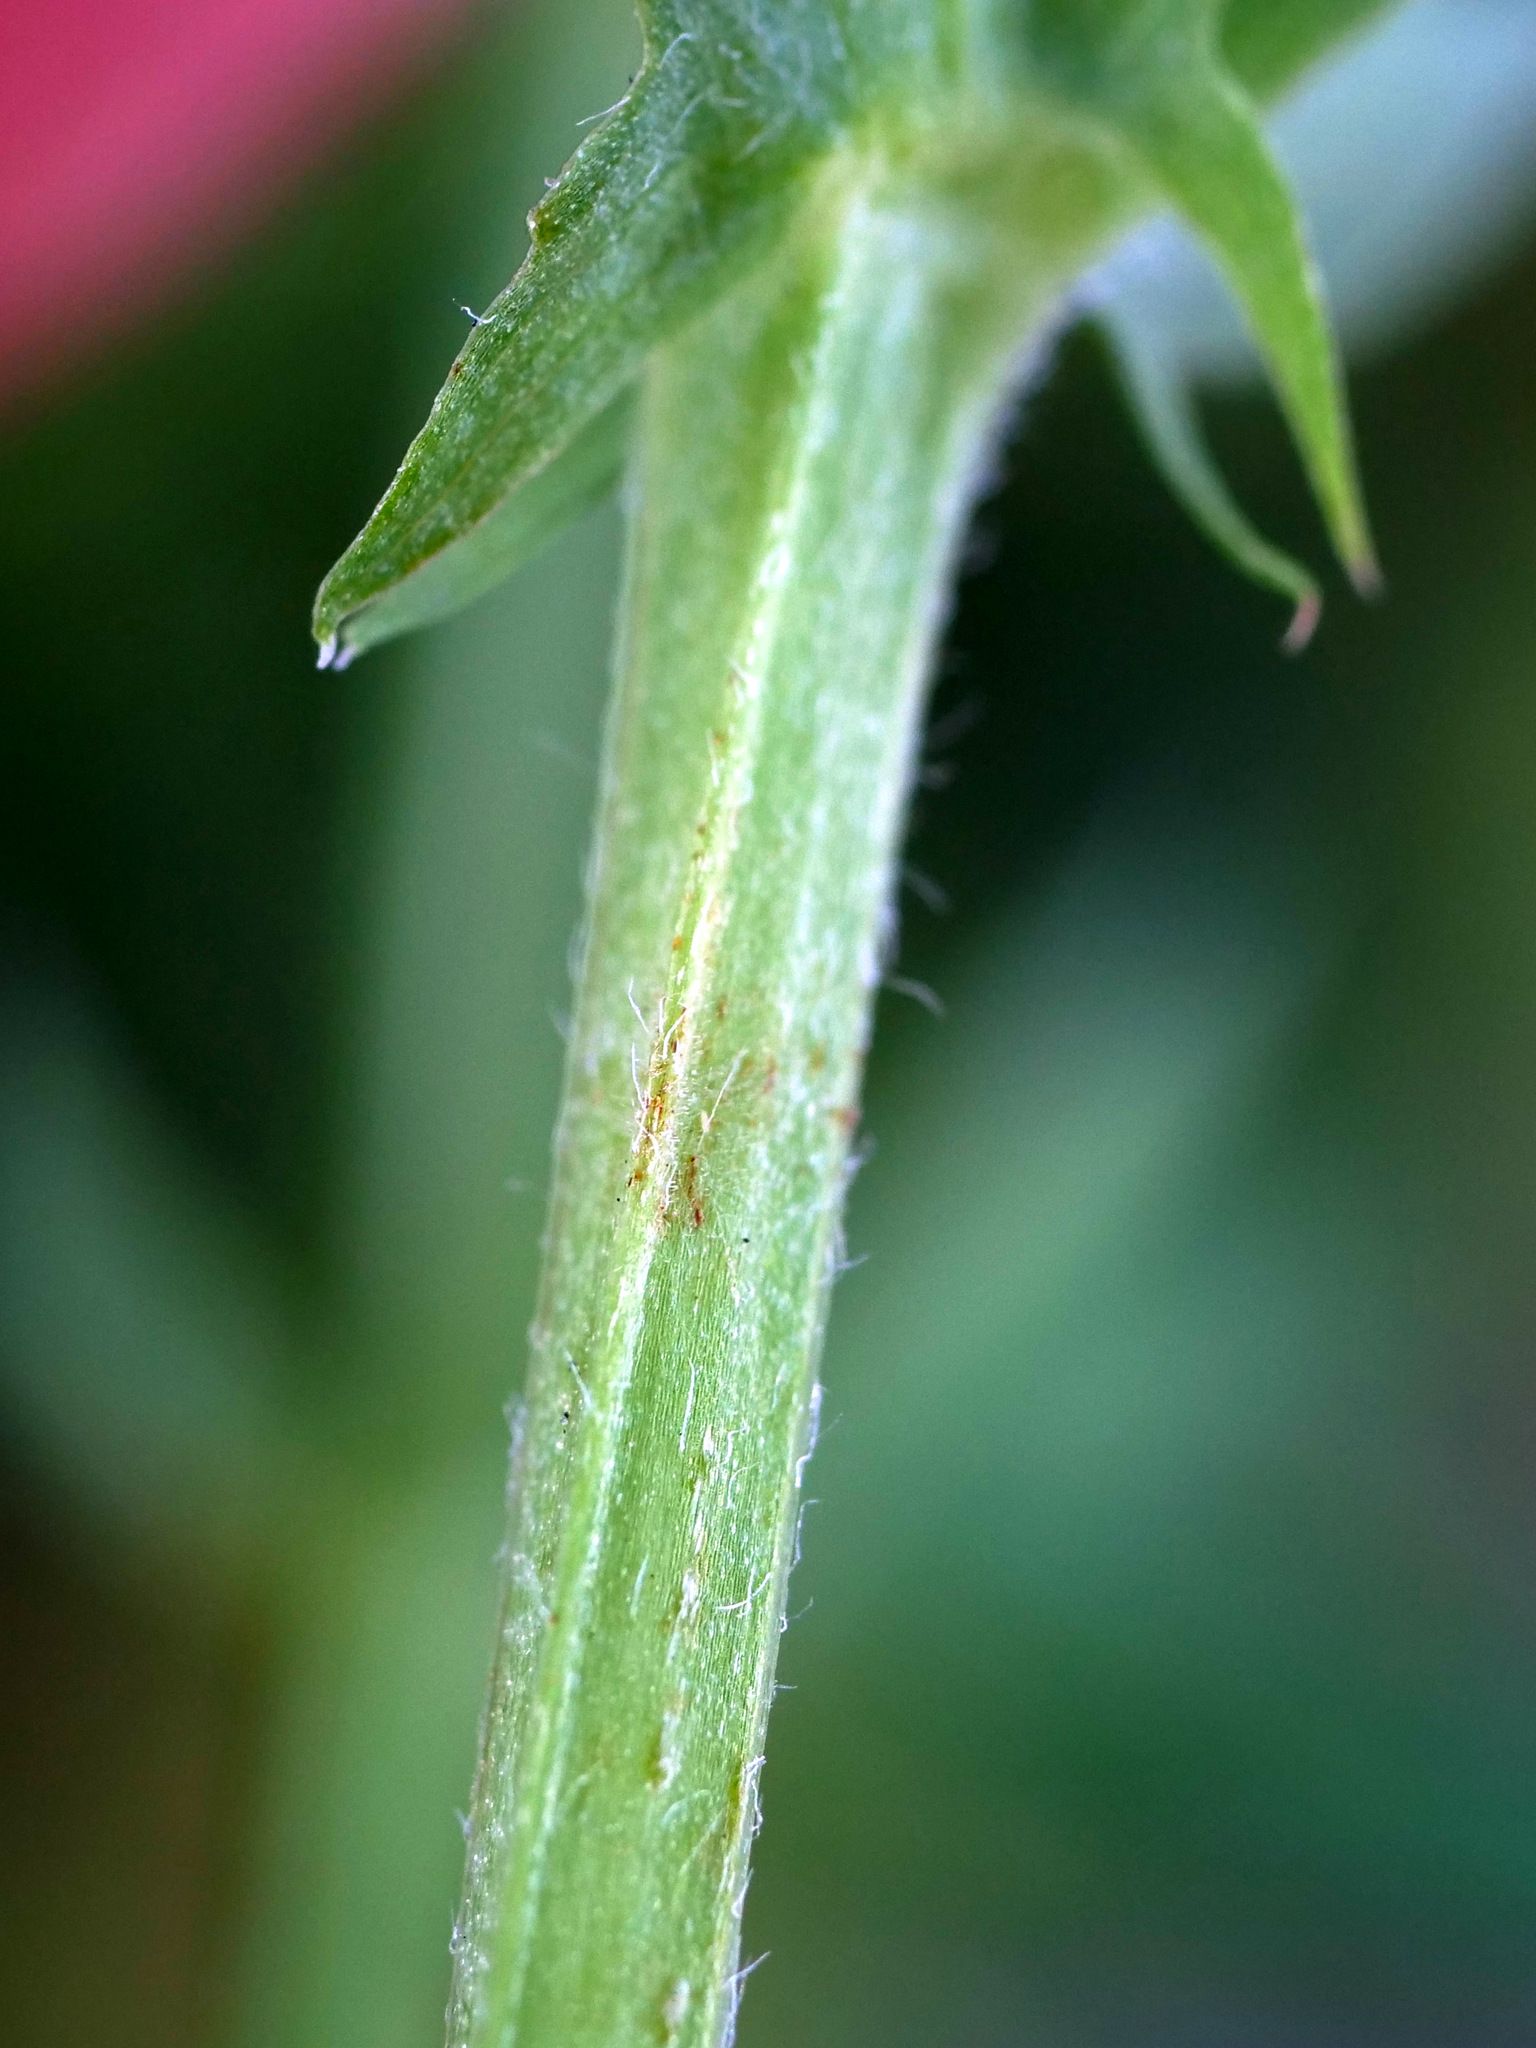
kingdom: Plantae
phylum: Tracheophyta
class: Magnoliopsida
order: Fabales
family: Fabaceae
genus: Lathyrus
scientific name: Lathyrus pratensis
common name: Meadow vetchling
